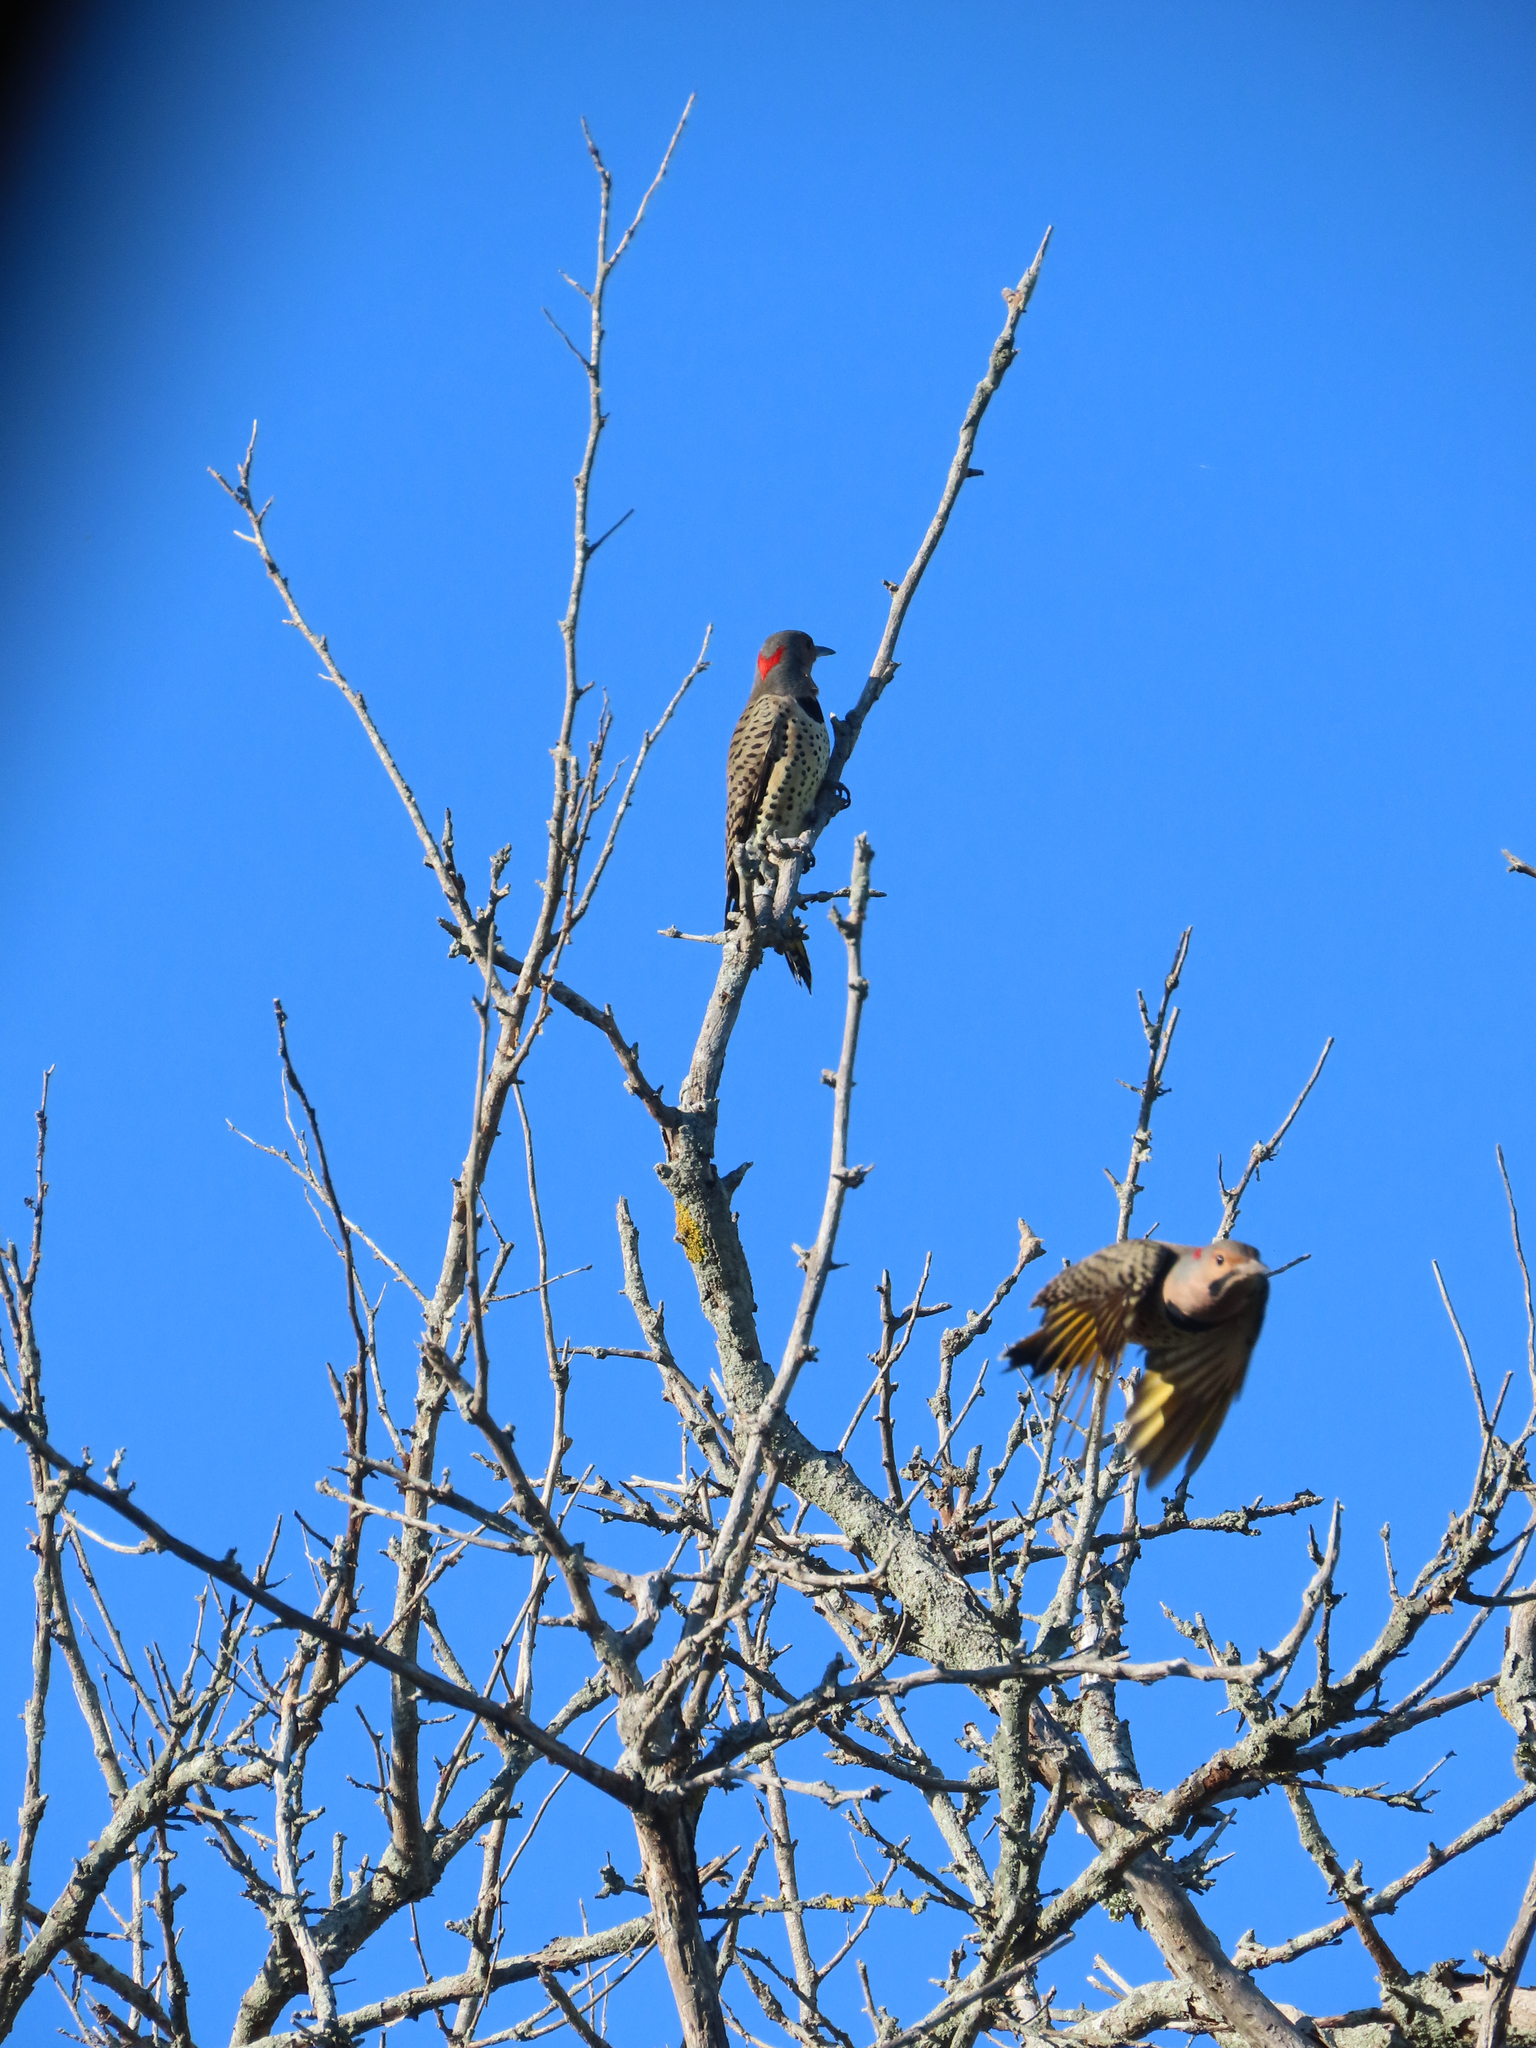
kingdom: Animalia
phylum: Chordata
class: Aves
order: Piciformes
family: Picidae
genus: Colaptes
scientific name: Colaptes auratus
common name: Northern flicker
